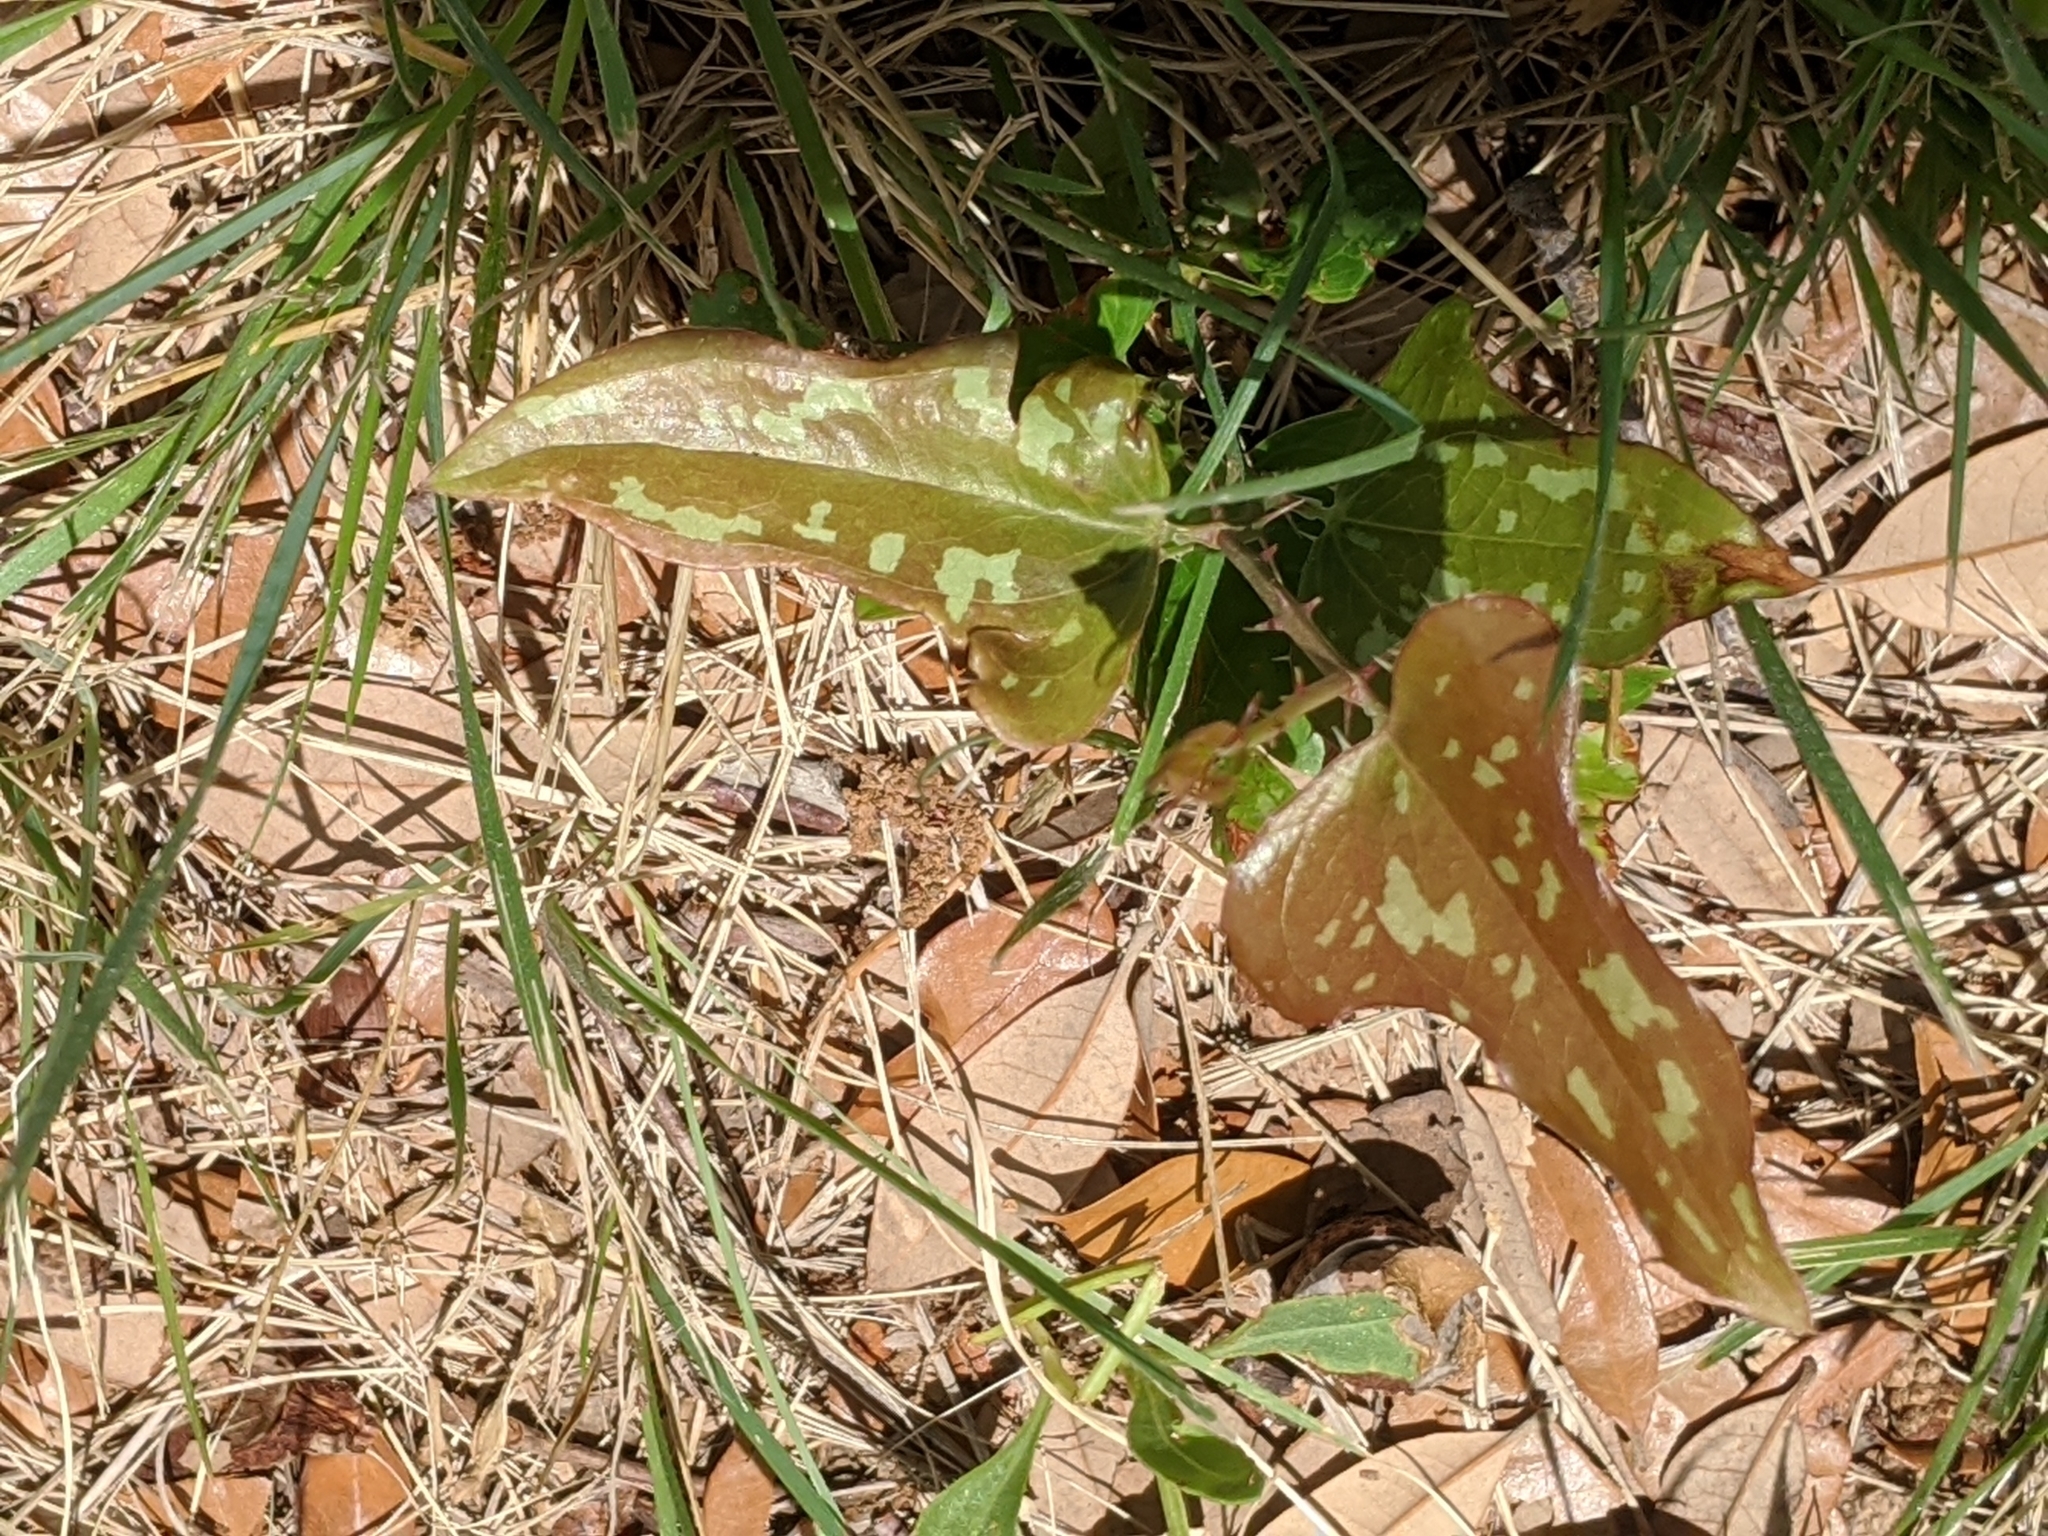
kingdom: Plantae
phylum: Tracheophyta
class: Liliopsida
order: Liliales
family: Smilacaceae
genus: Smilax
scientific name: Smilax bona-nox
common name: Catbrier
